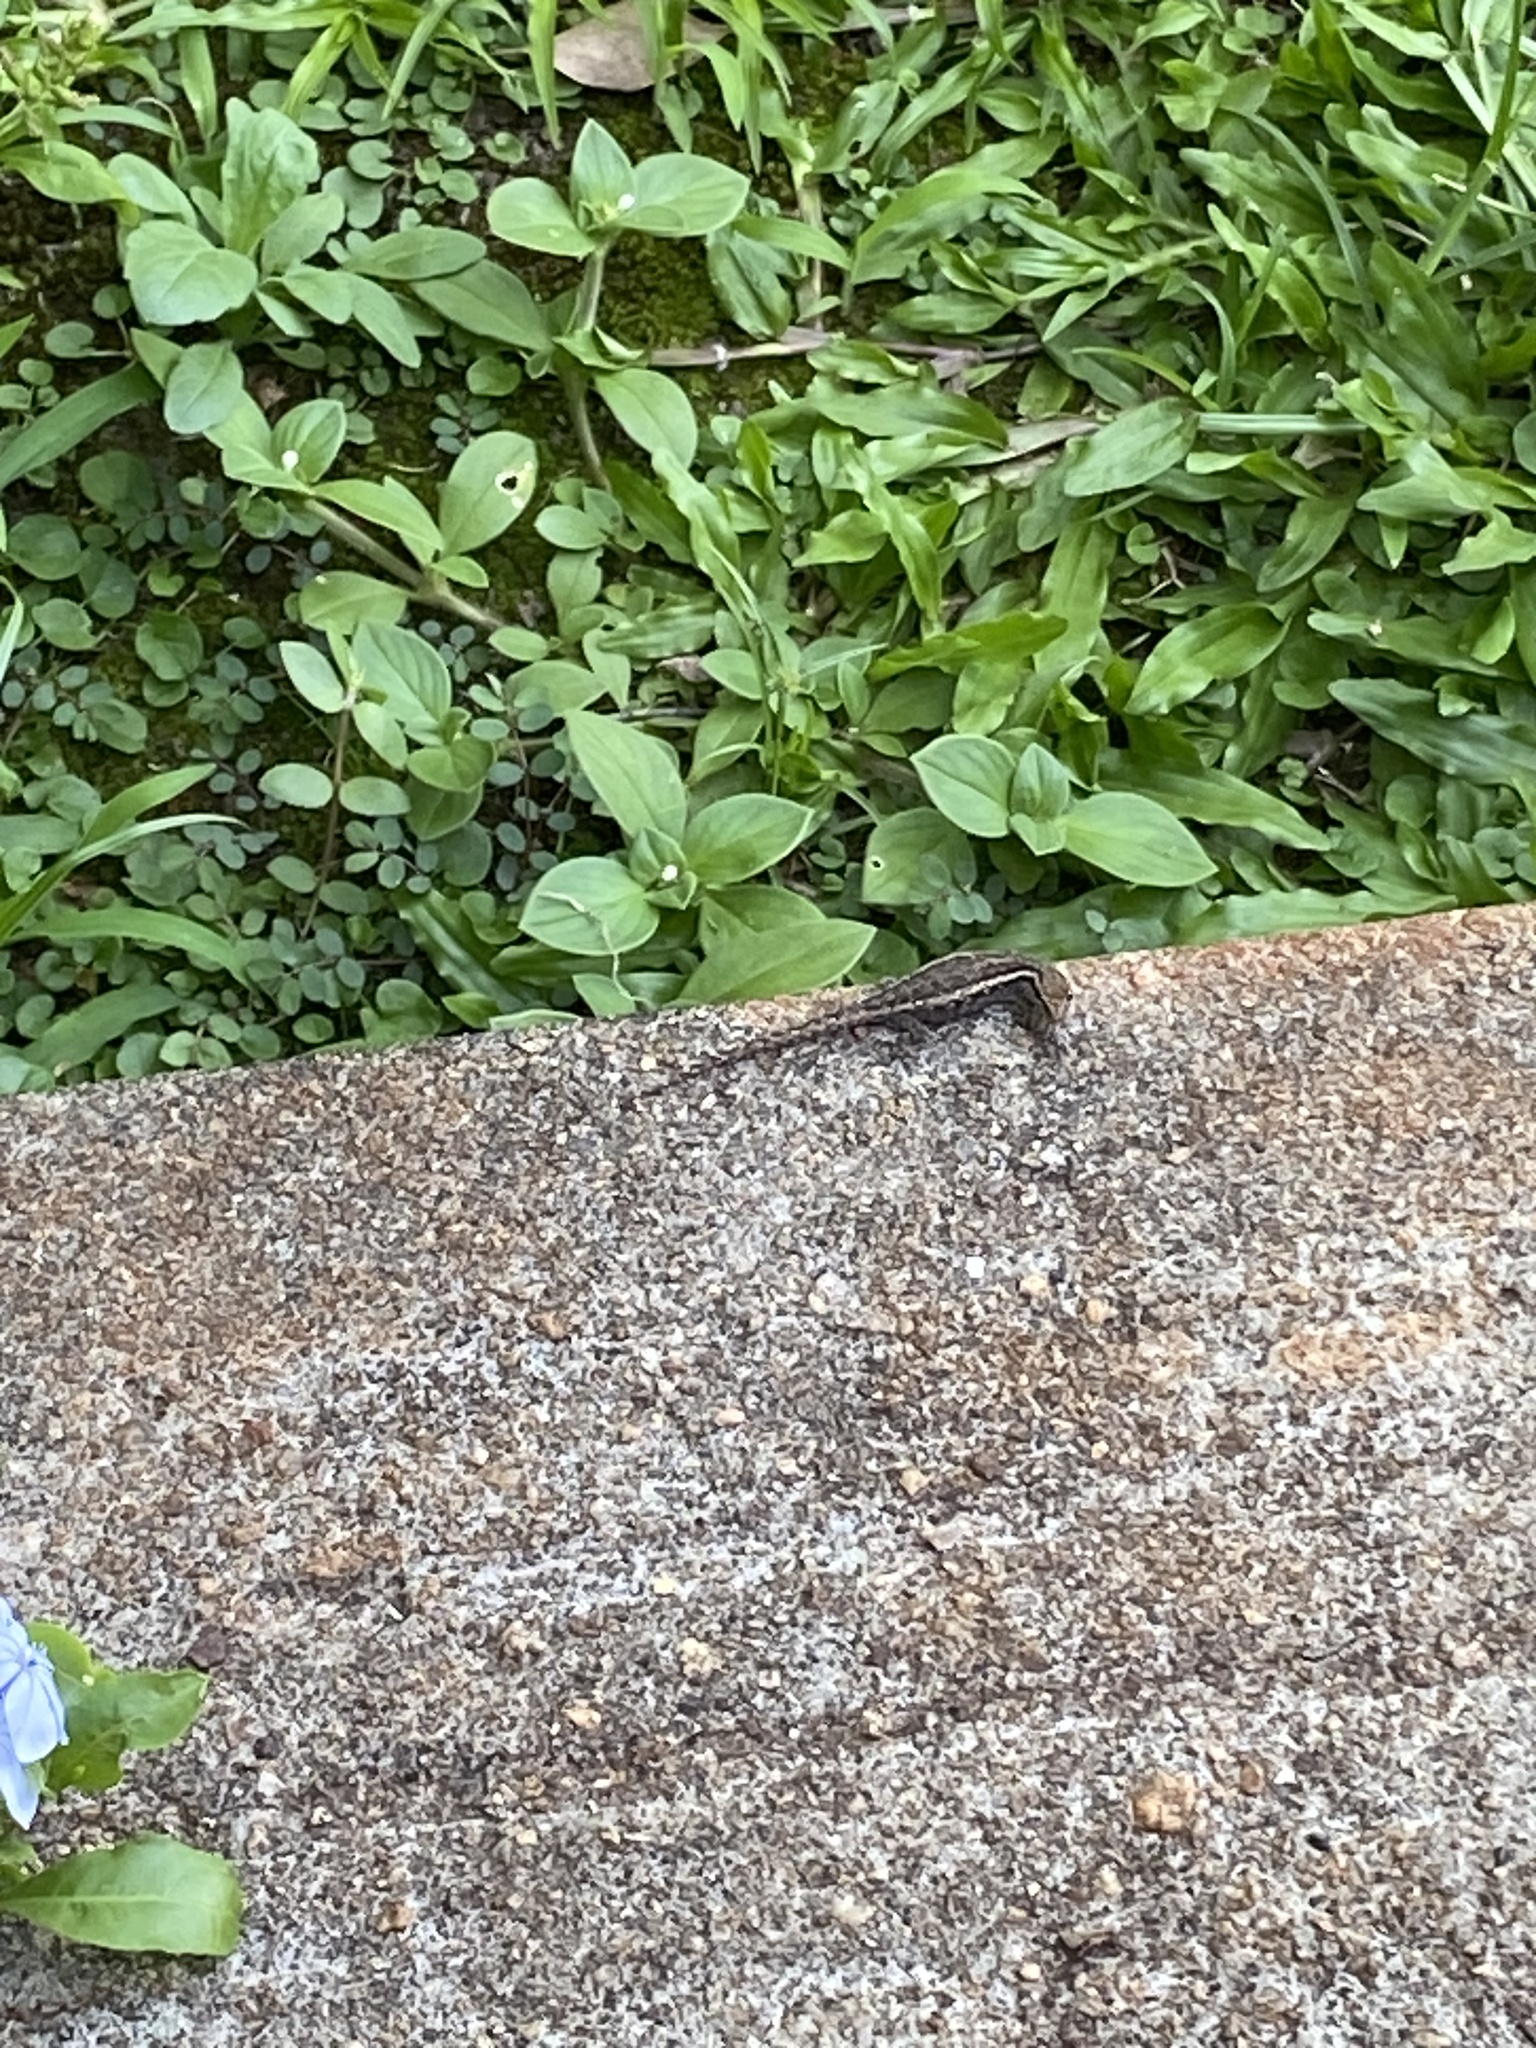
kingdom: Animalia
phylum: Chordata
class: Squamata
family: Gekkonidae
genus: Lygodactylus
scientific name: Lygodactylus capensis
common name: Cape dwarf gecko
